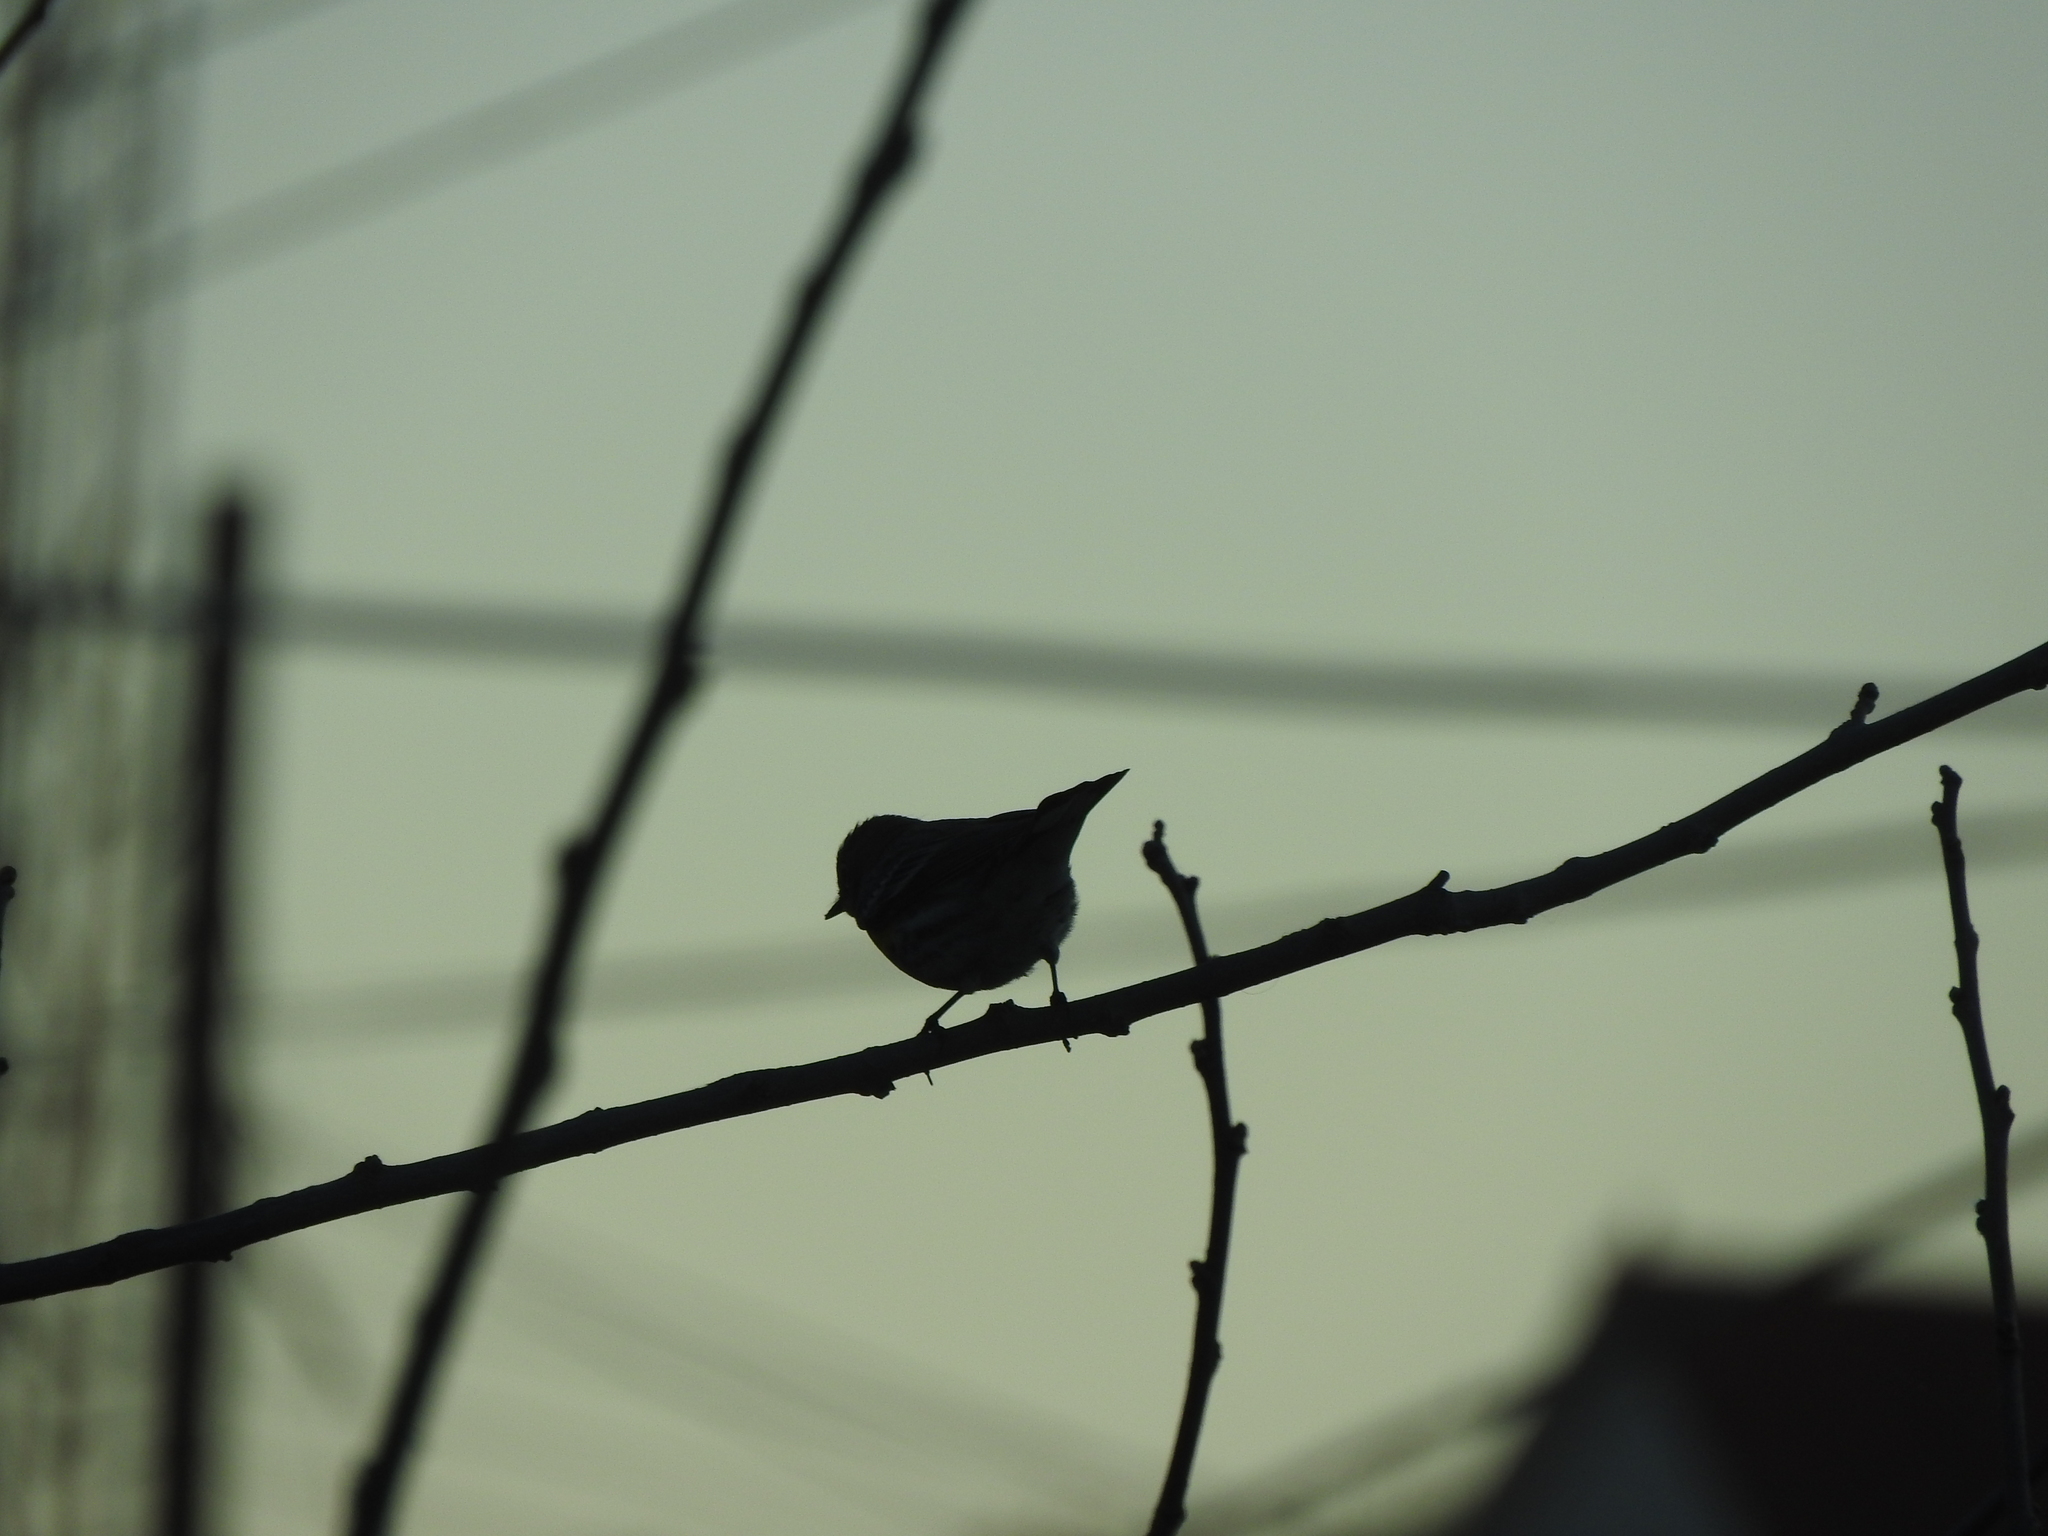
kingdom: Animalia
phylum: Chordata
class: Aves
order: Passeriformes
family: Parulidae
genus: Setophaga
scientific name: Setophaga
